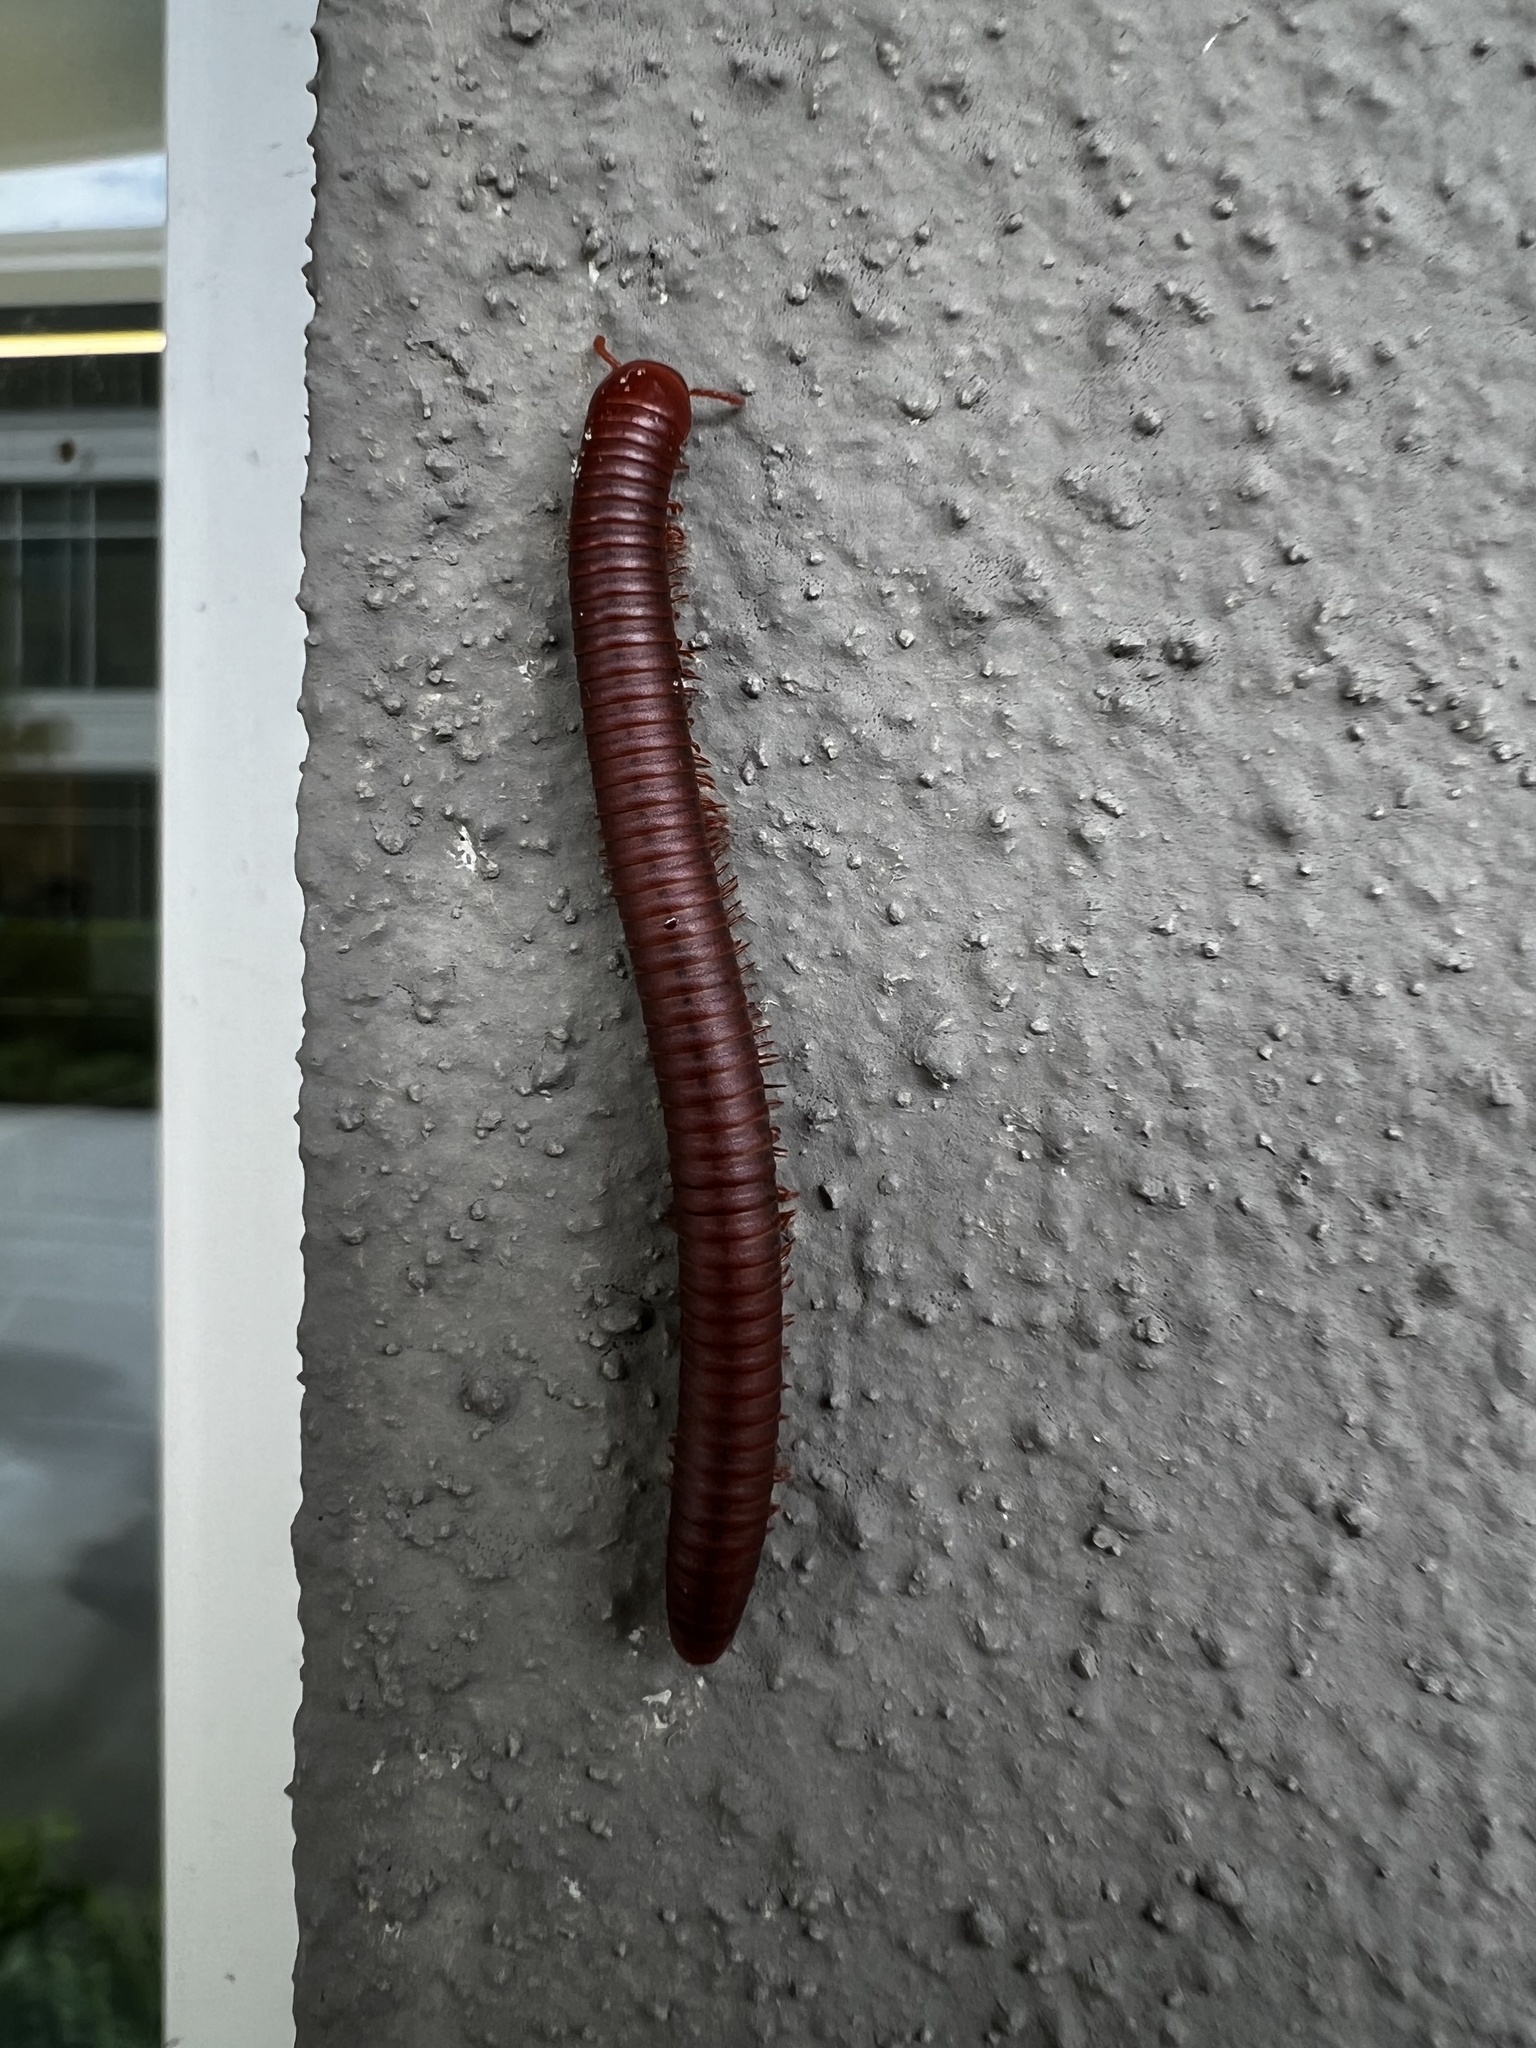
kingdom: Animalia
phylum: Arthropoda
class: Diplopoda
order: Spirobolida
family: Pachybolidae
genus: Trigoniulus
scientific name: Trigoniulus corallinus
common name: Millipede
